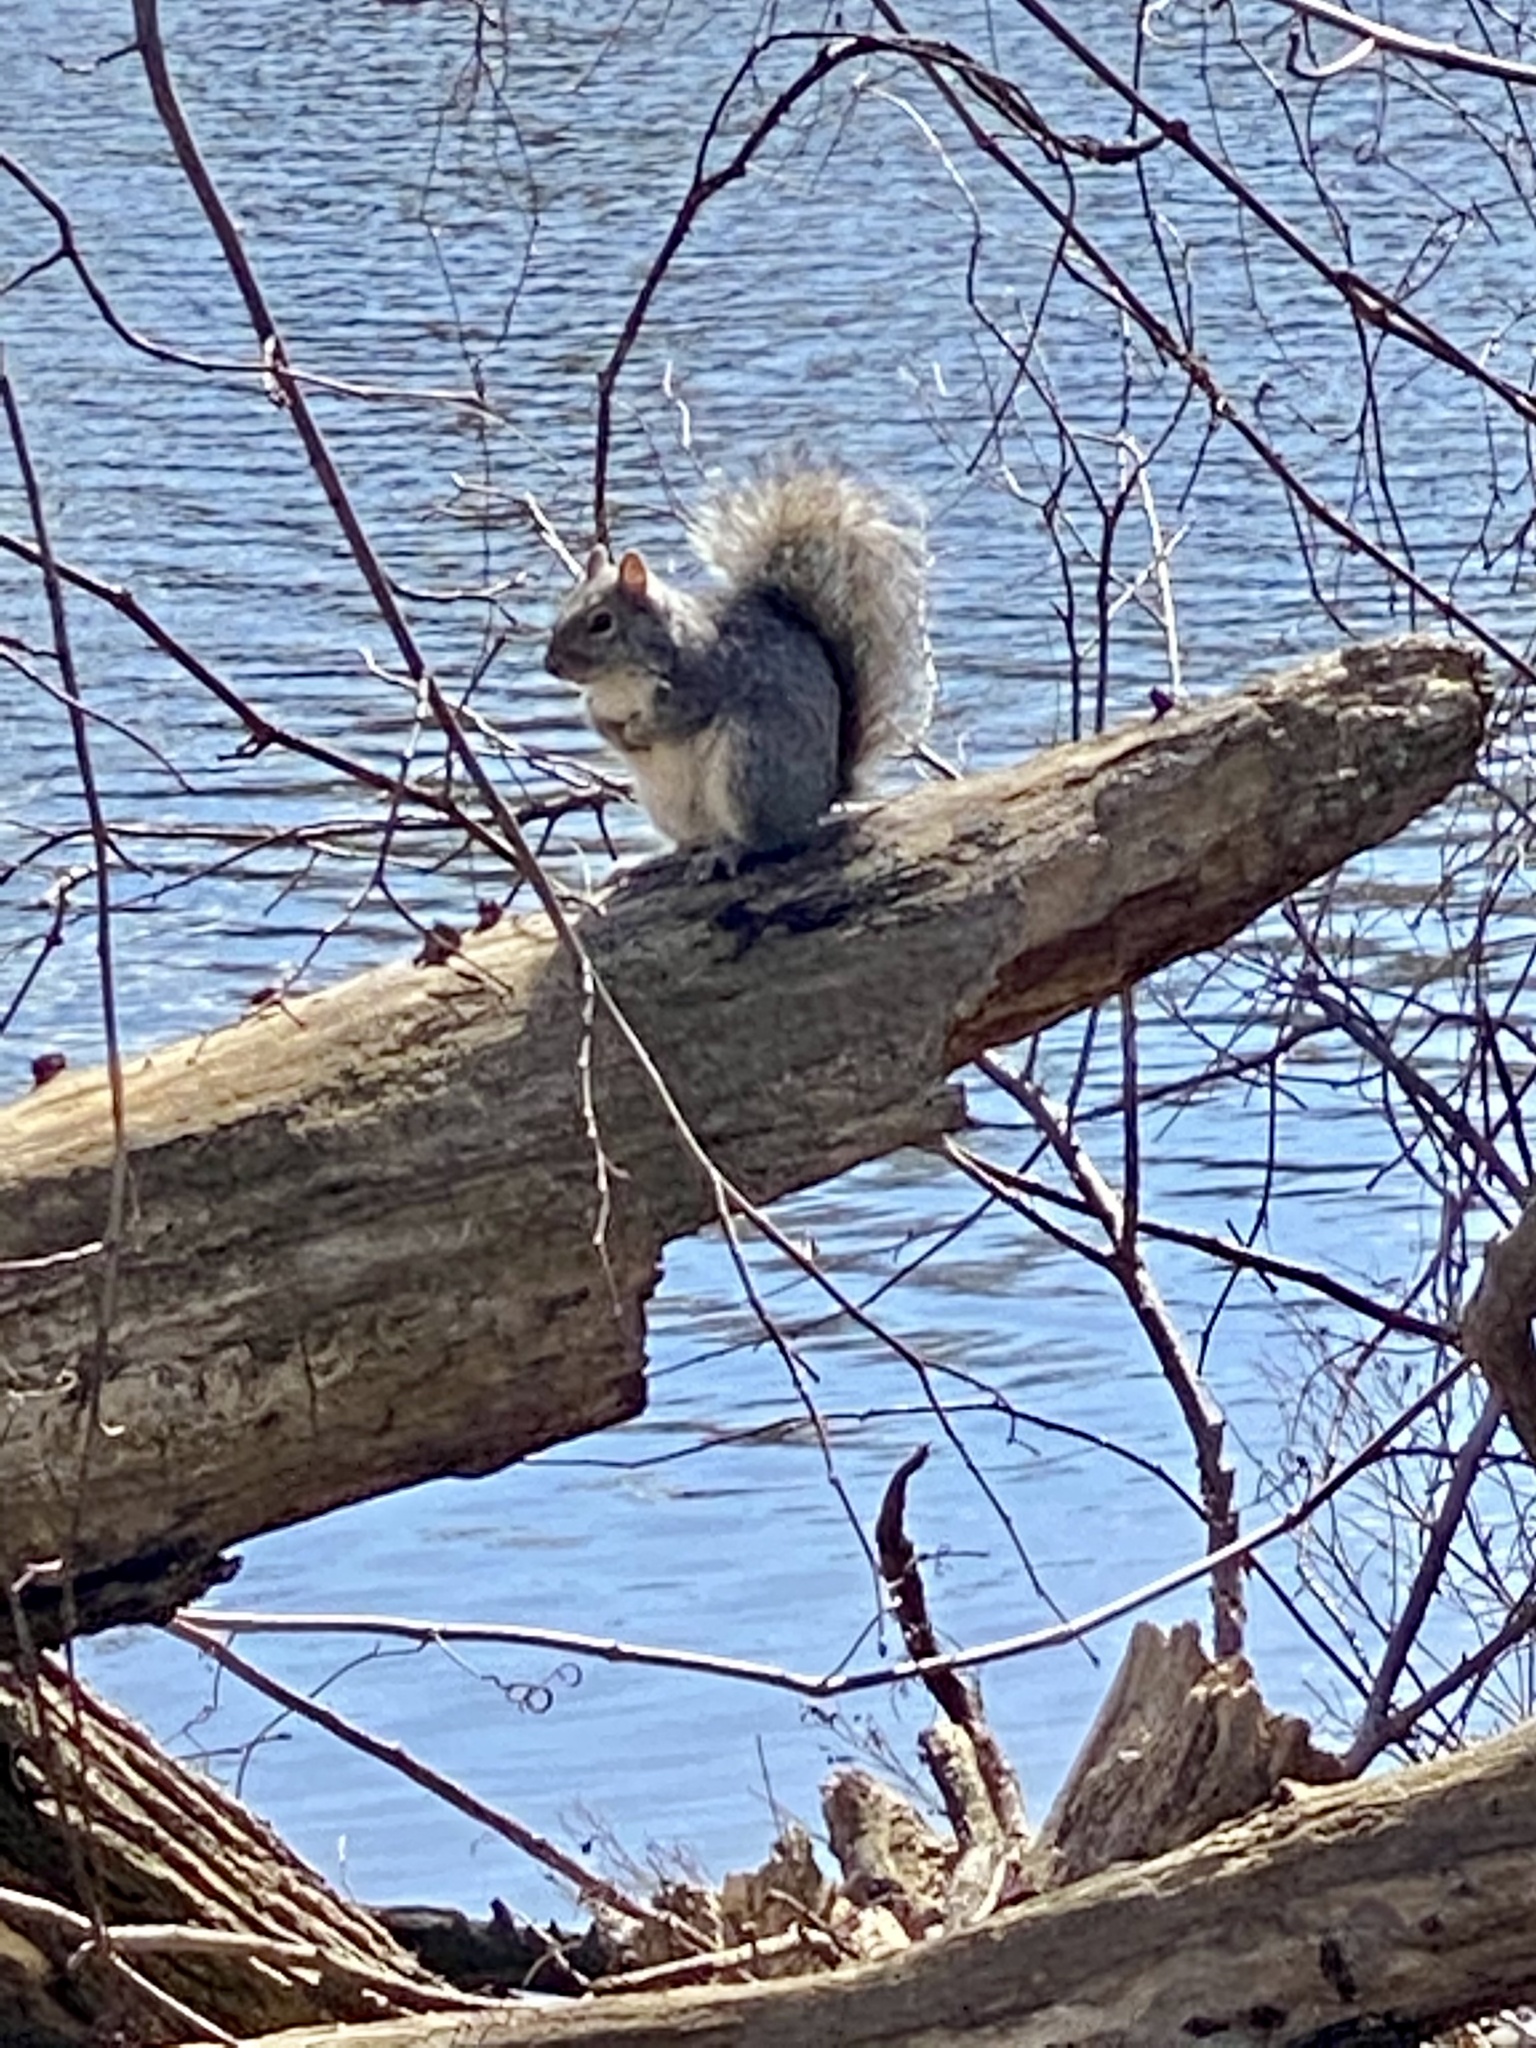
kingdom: Animalia
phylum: Chordata
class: Mammalia
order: Rodentia
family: Sciuridae
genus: Sciurus
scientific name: Sciurus carolinensis
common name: Eastern gray squirrel
